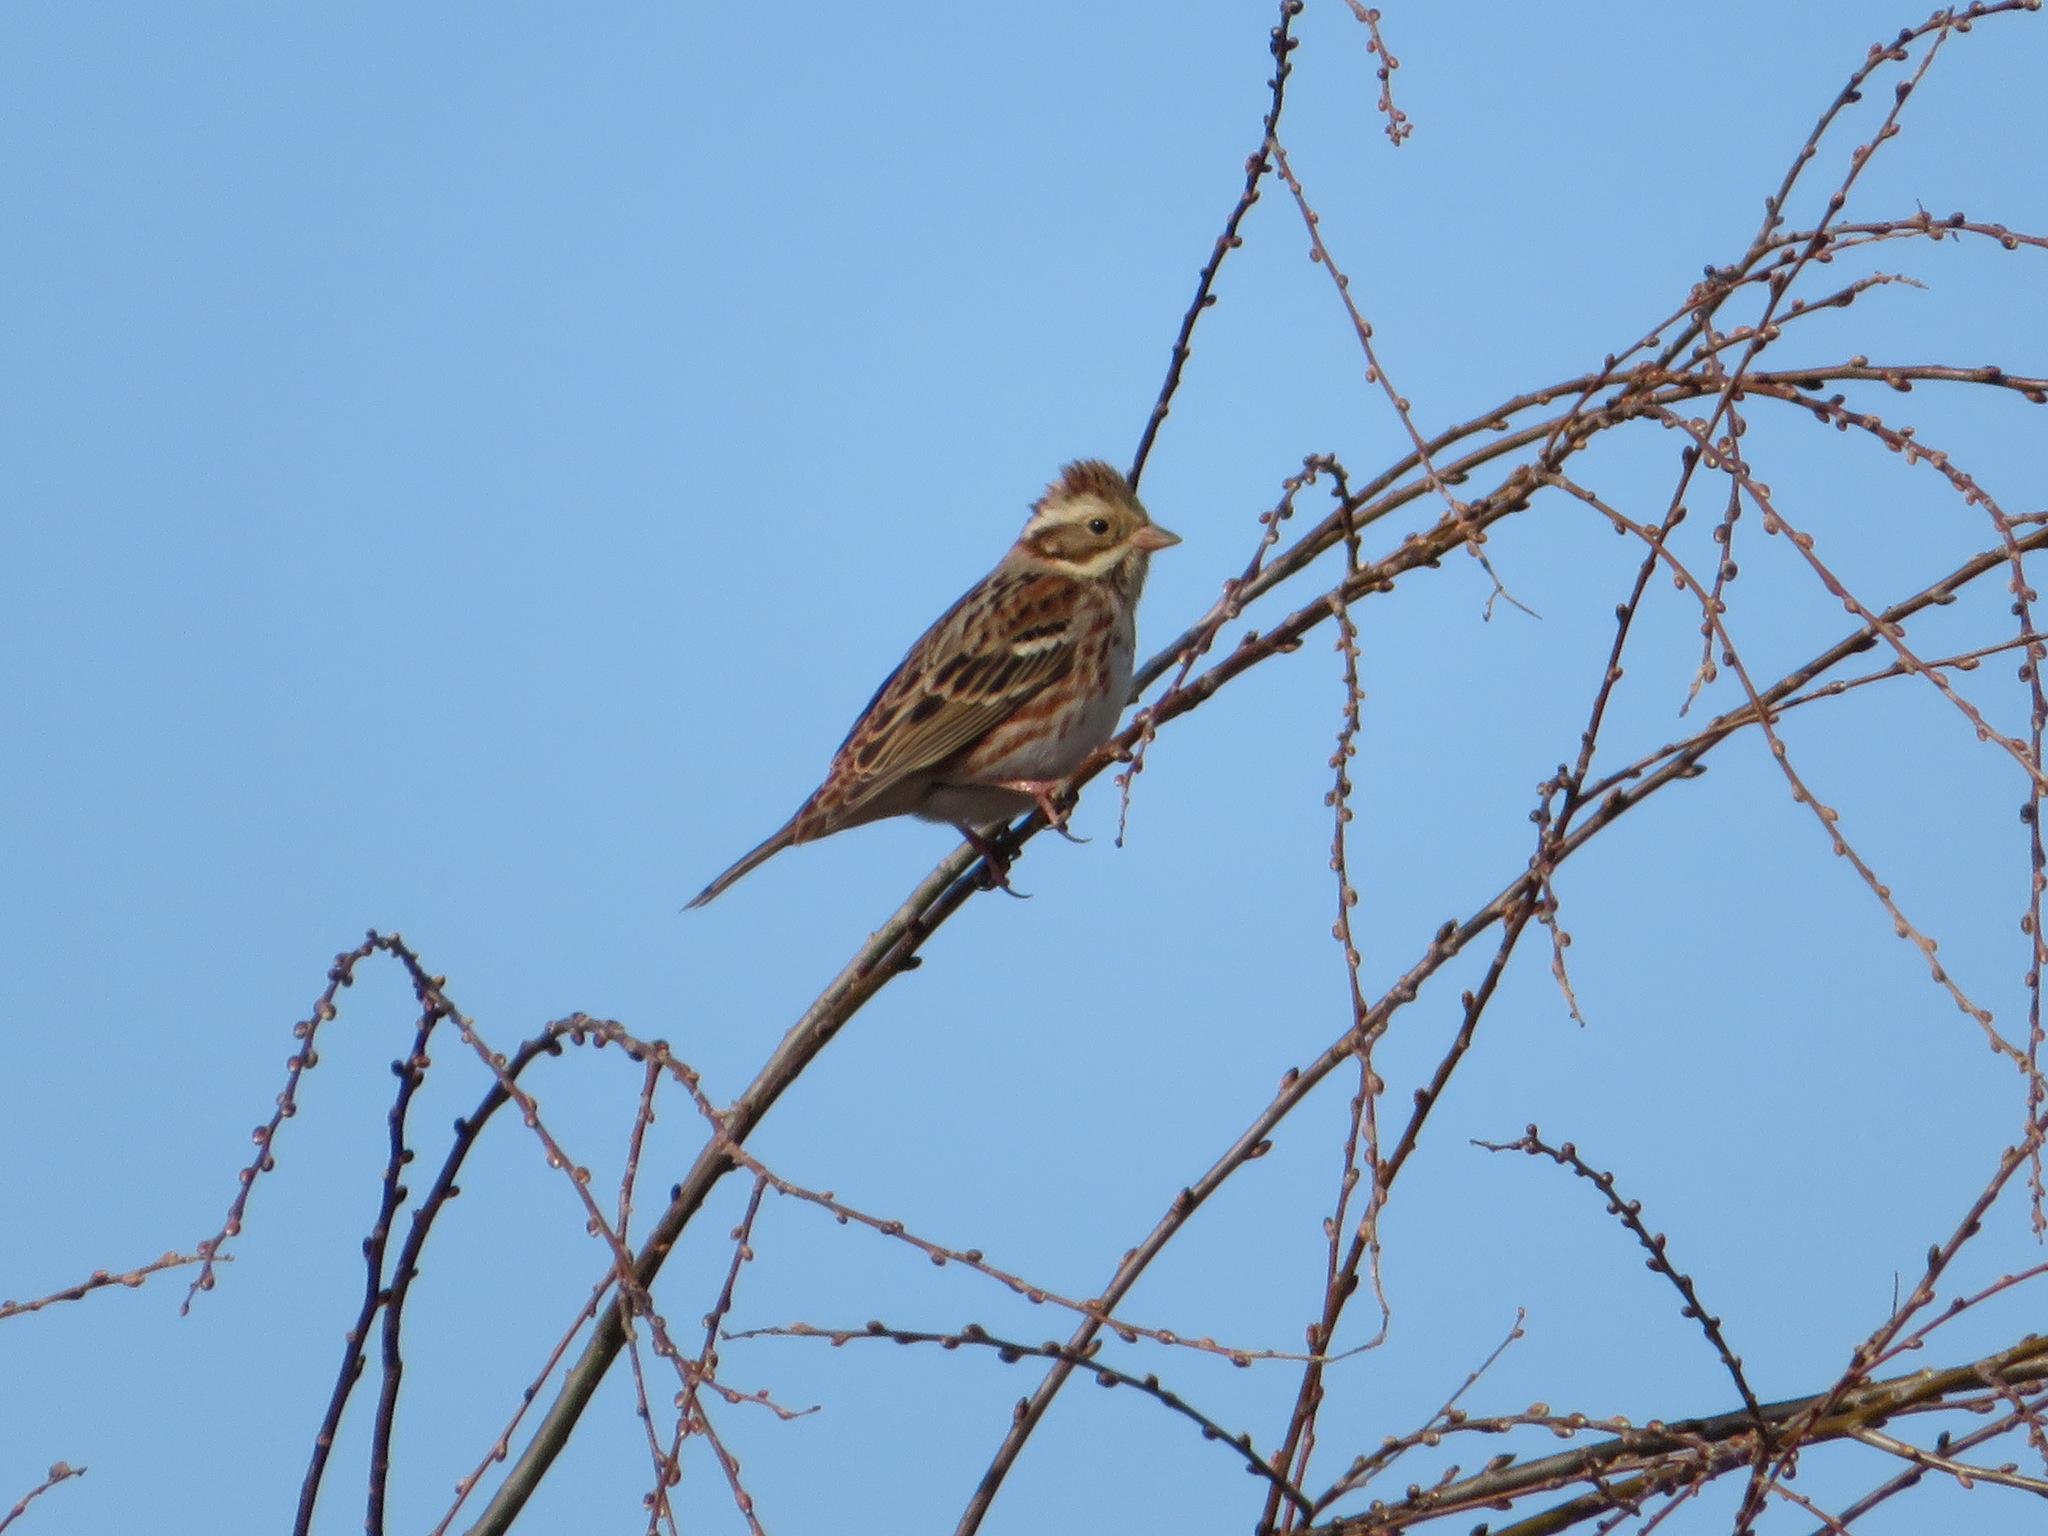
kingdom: Animalia
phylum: Chordata
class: Aves
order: Passeriformes
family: Emberizidae
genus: Emberiza
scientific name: Emberiza rustica
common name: Rustic bunting
